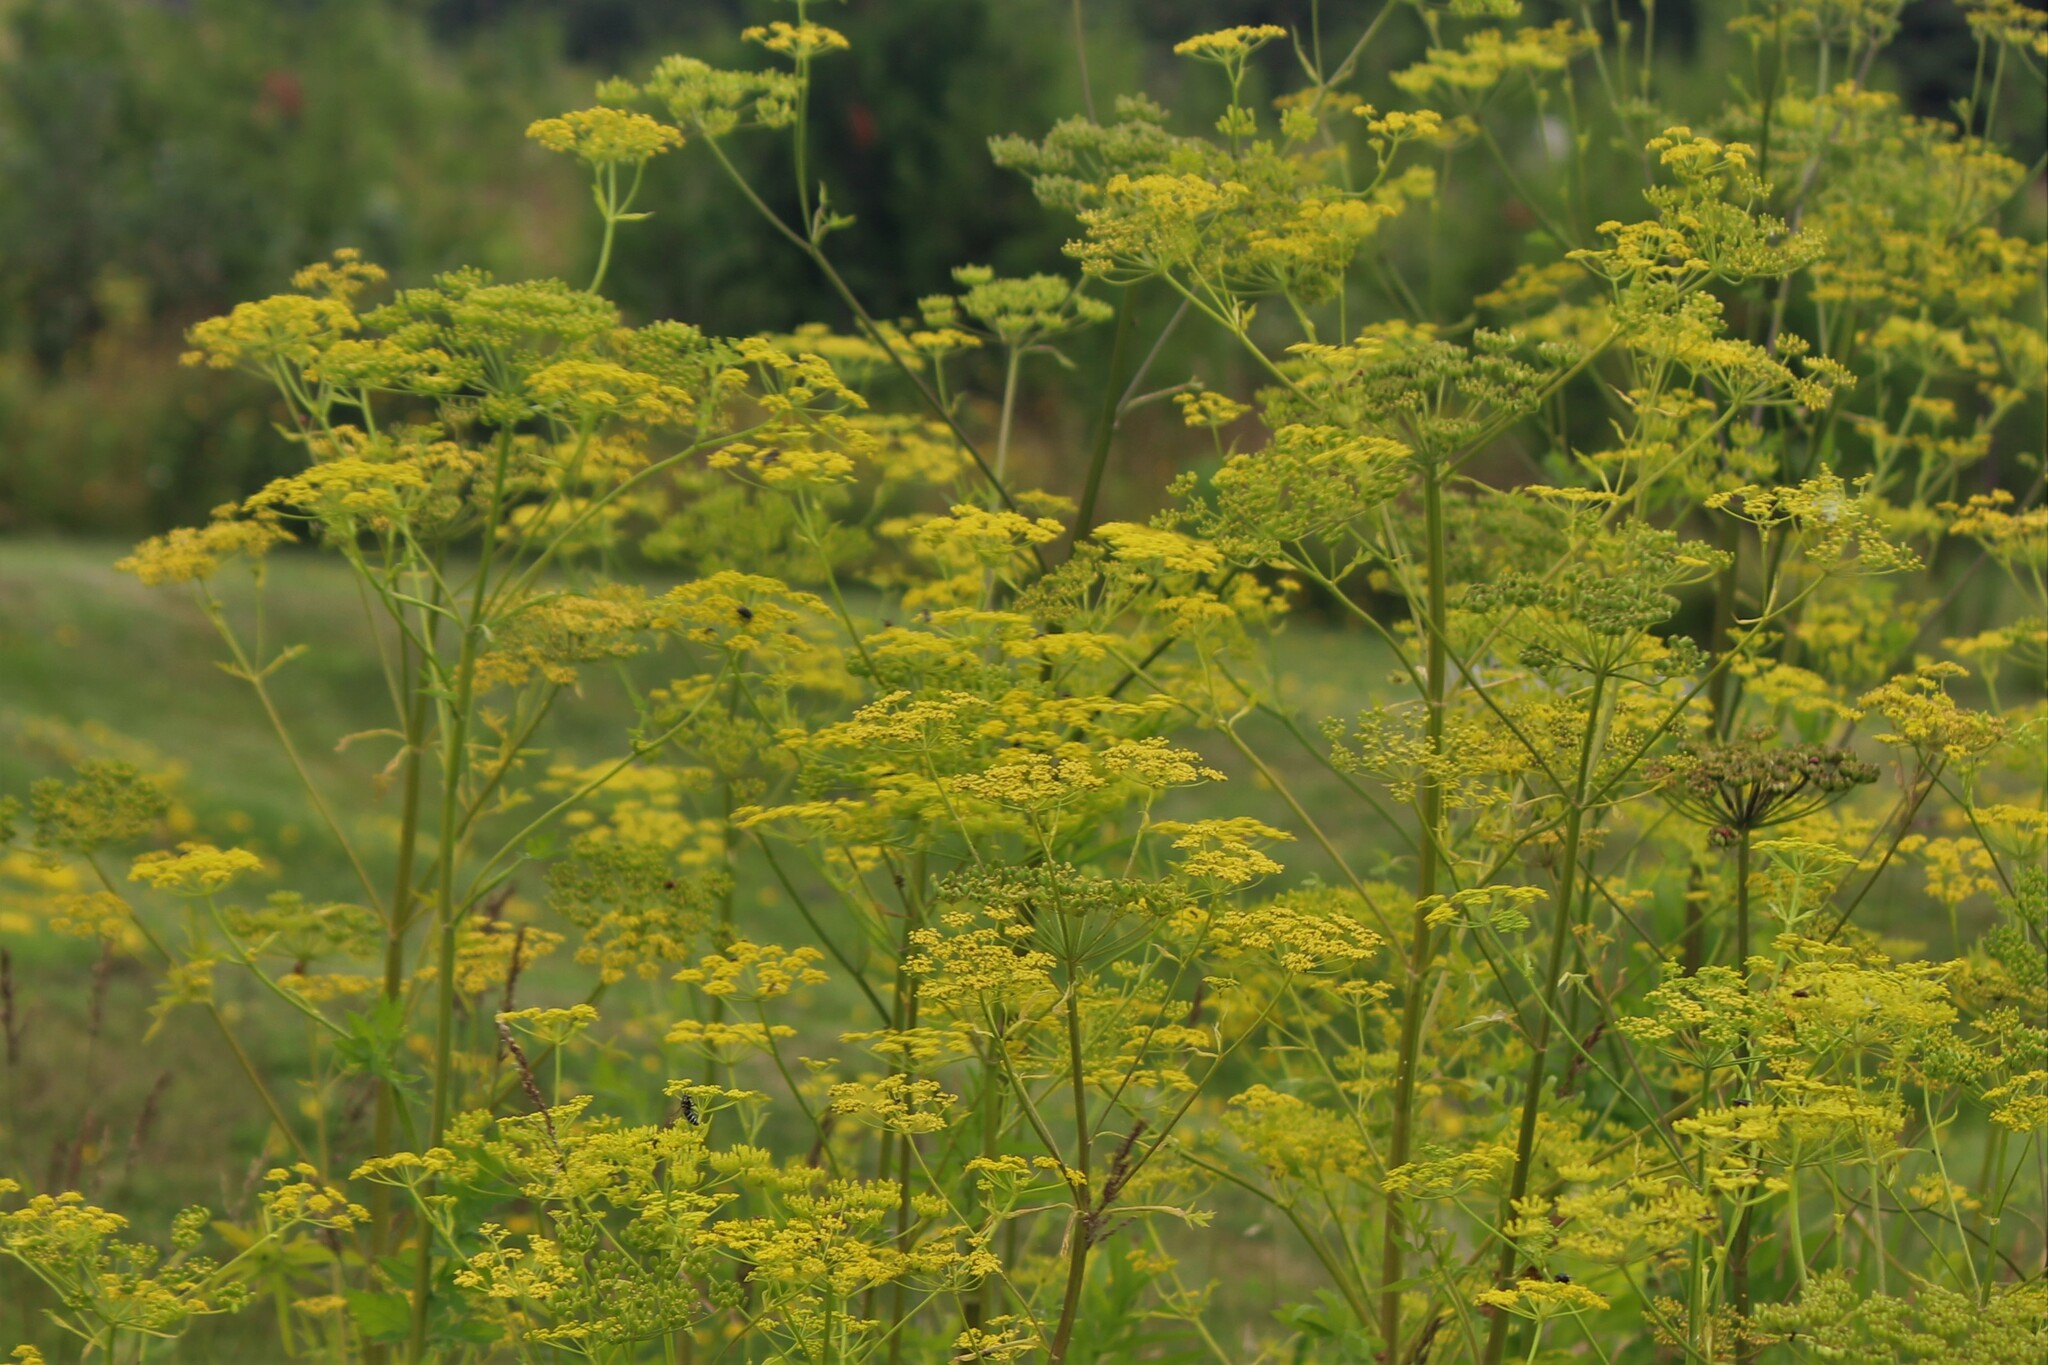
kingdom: Plantae
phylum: Tracheophyta
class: Magnoliopsida
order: Apiales
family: Apiaceae
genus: Pastinaca
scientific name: Pastinaca sativa
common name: Wild parsnip
